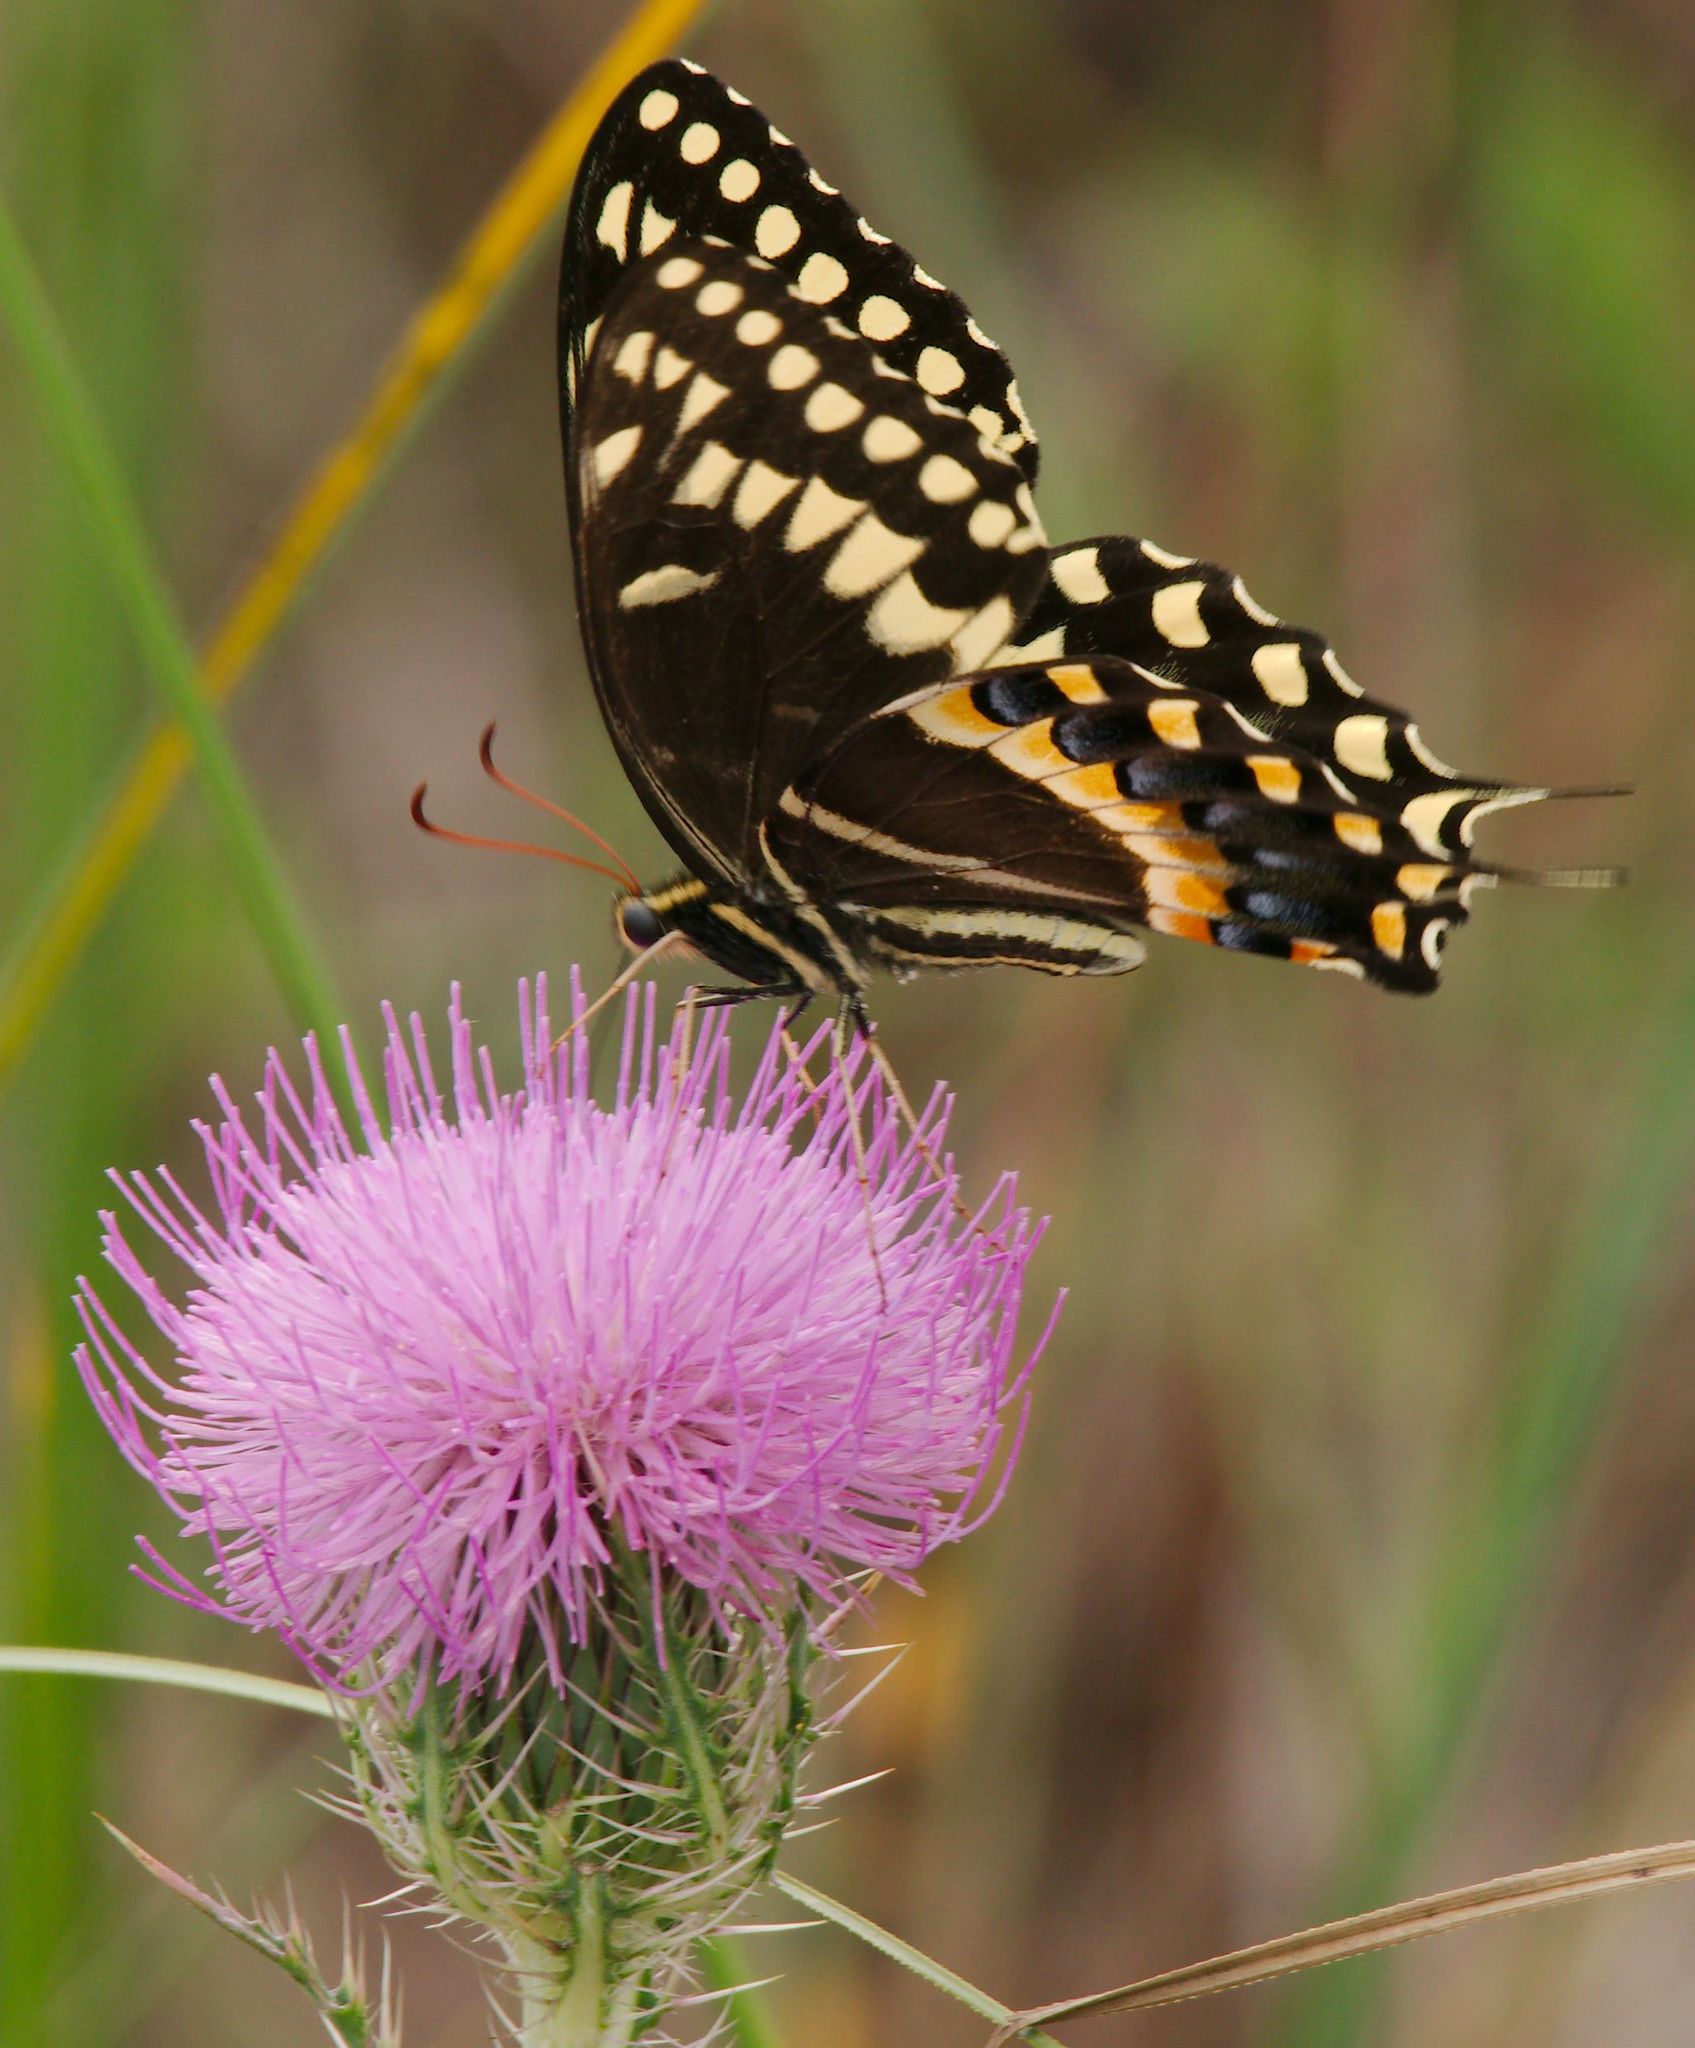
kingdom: Animalia
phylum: Arthropoda
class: Insecta
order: Lepidoptera
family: Papilionidae
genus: Papilio
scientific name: Papilio palamedes
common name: Palamedes swallowtail
